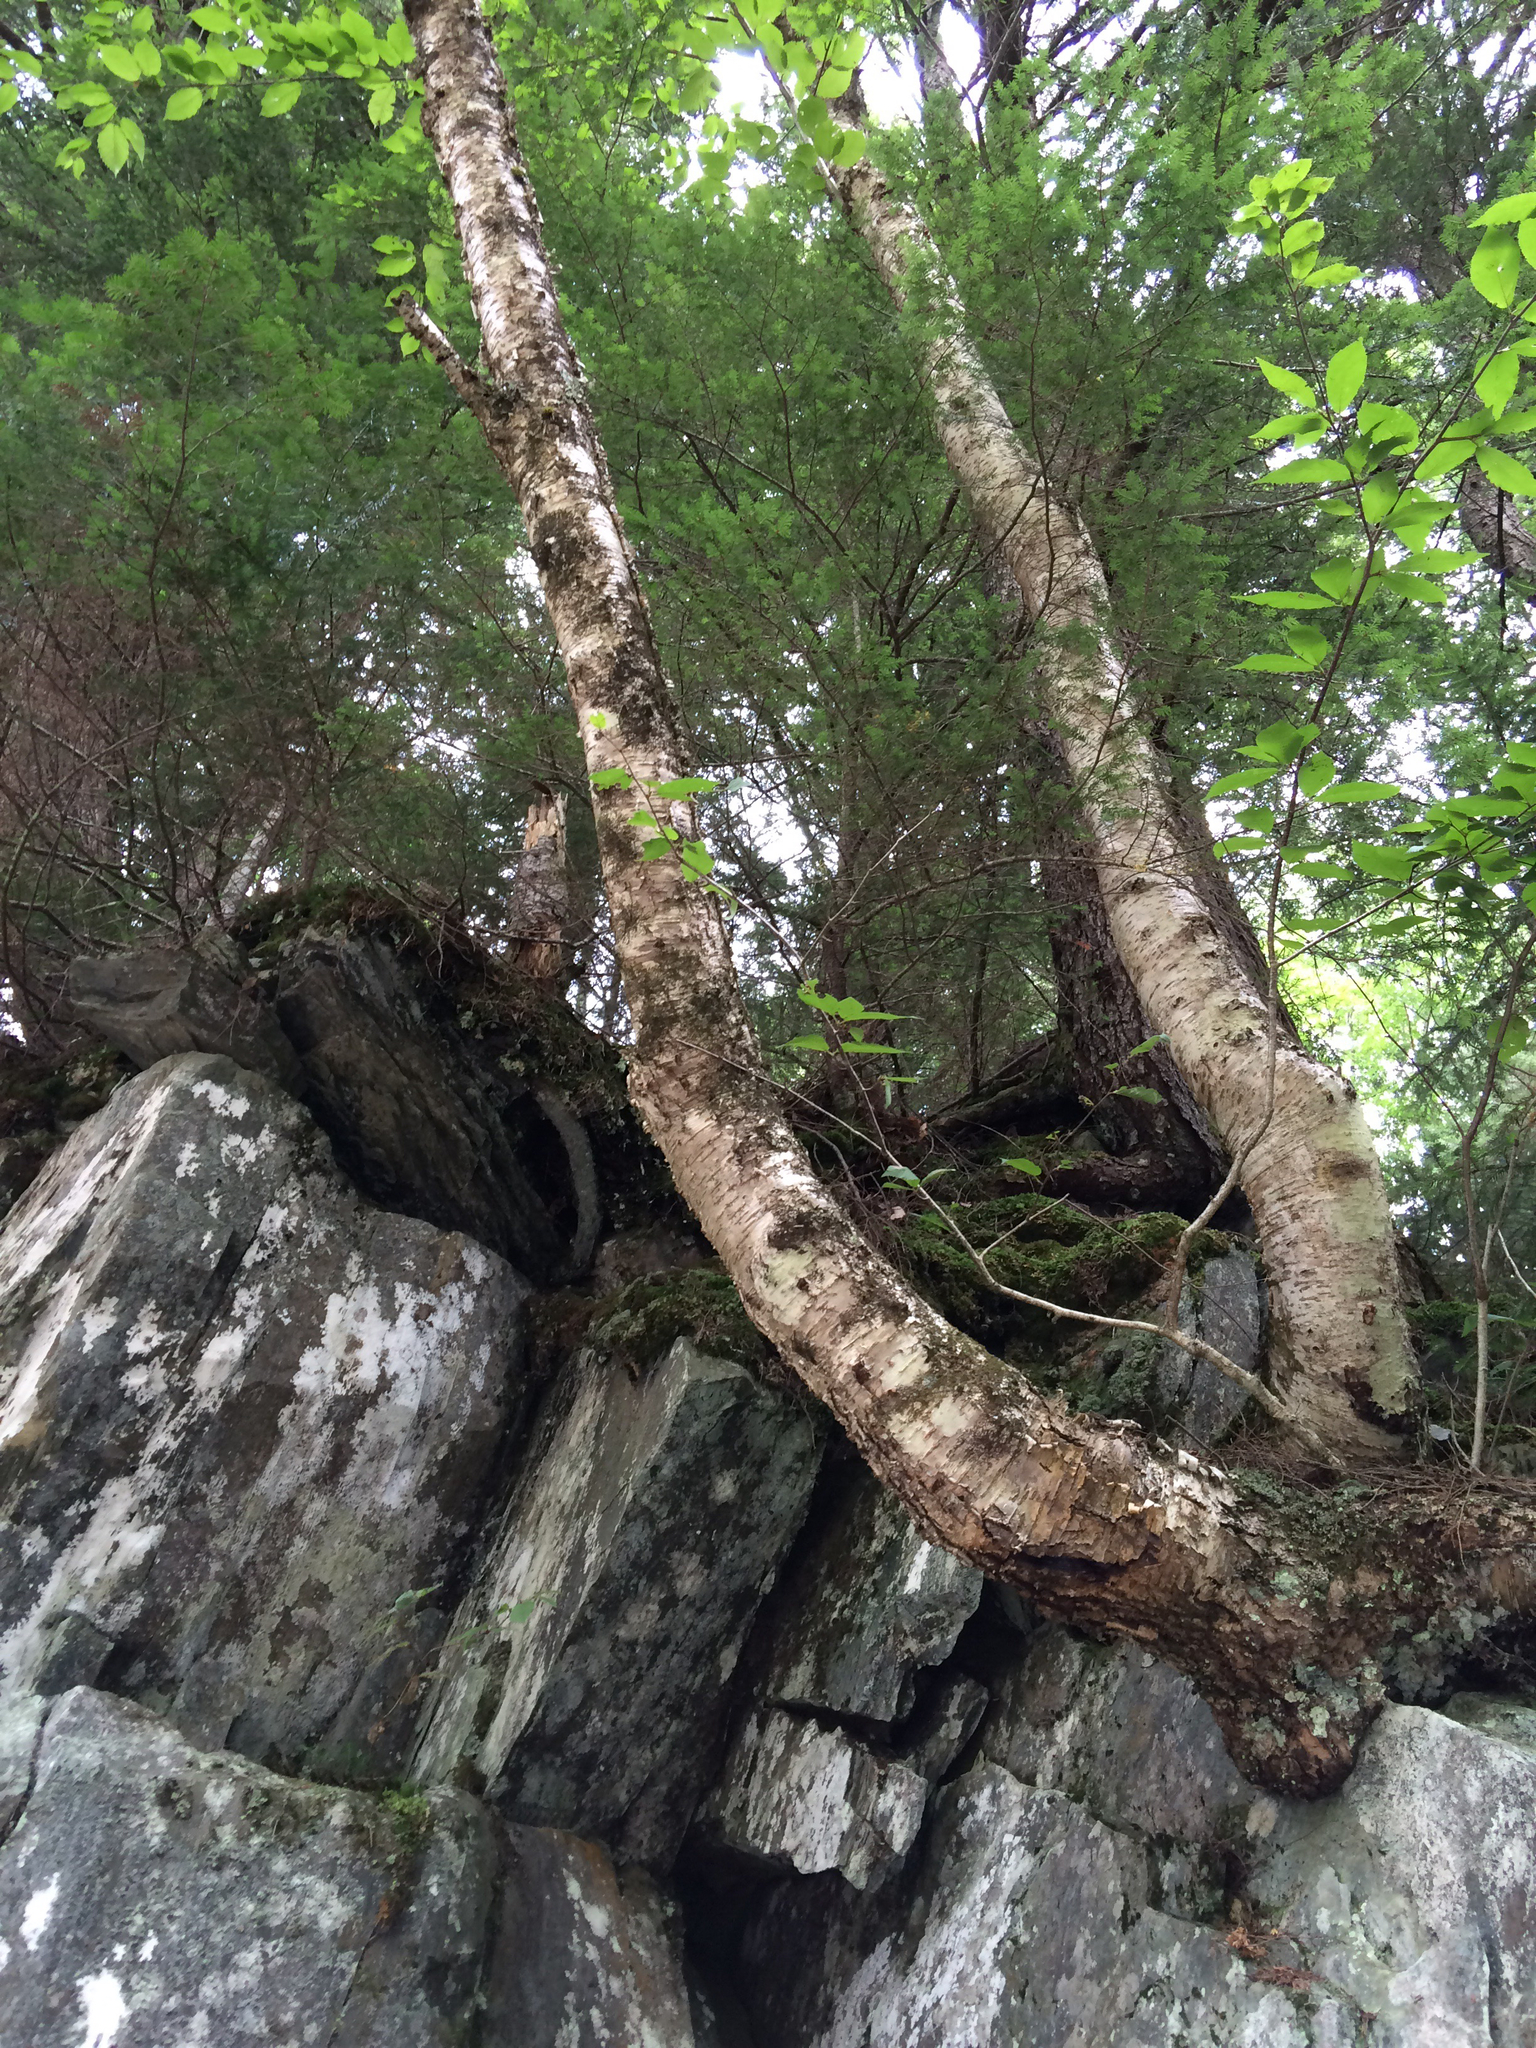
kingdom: Plantae
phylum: Tracheophyta
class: Magnoliopsida
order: Fagales
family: Betulaceae
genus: Betula
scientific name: Betula alleghaniensis
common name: Yellow birch
